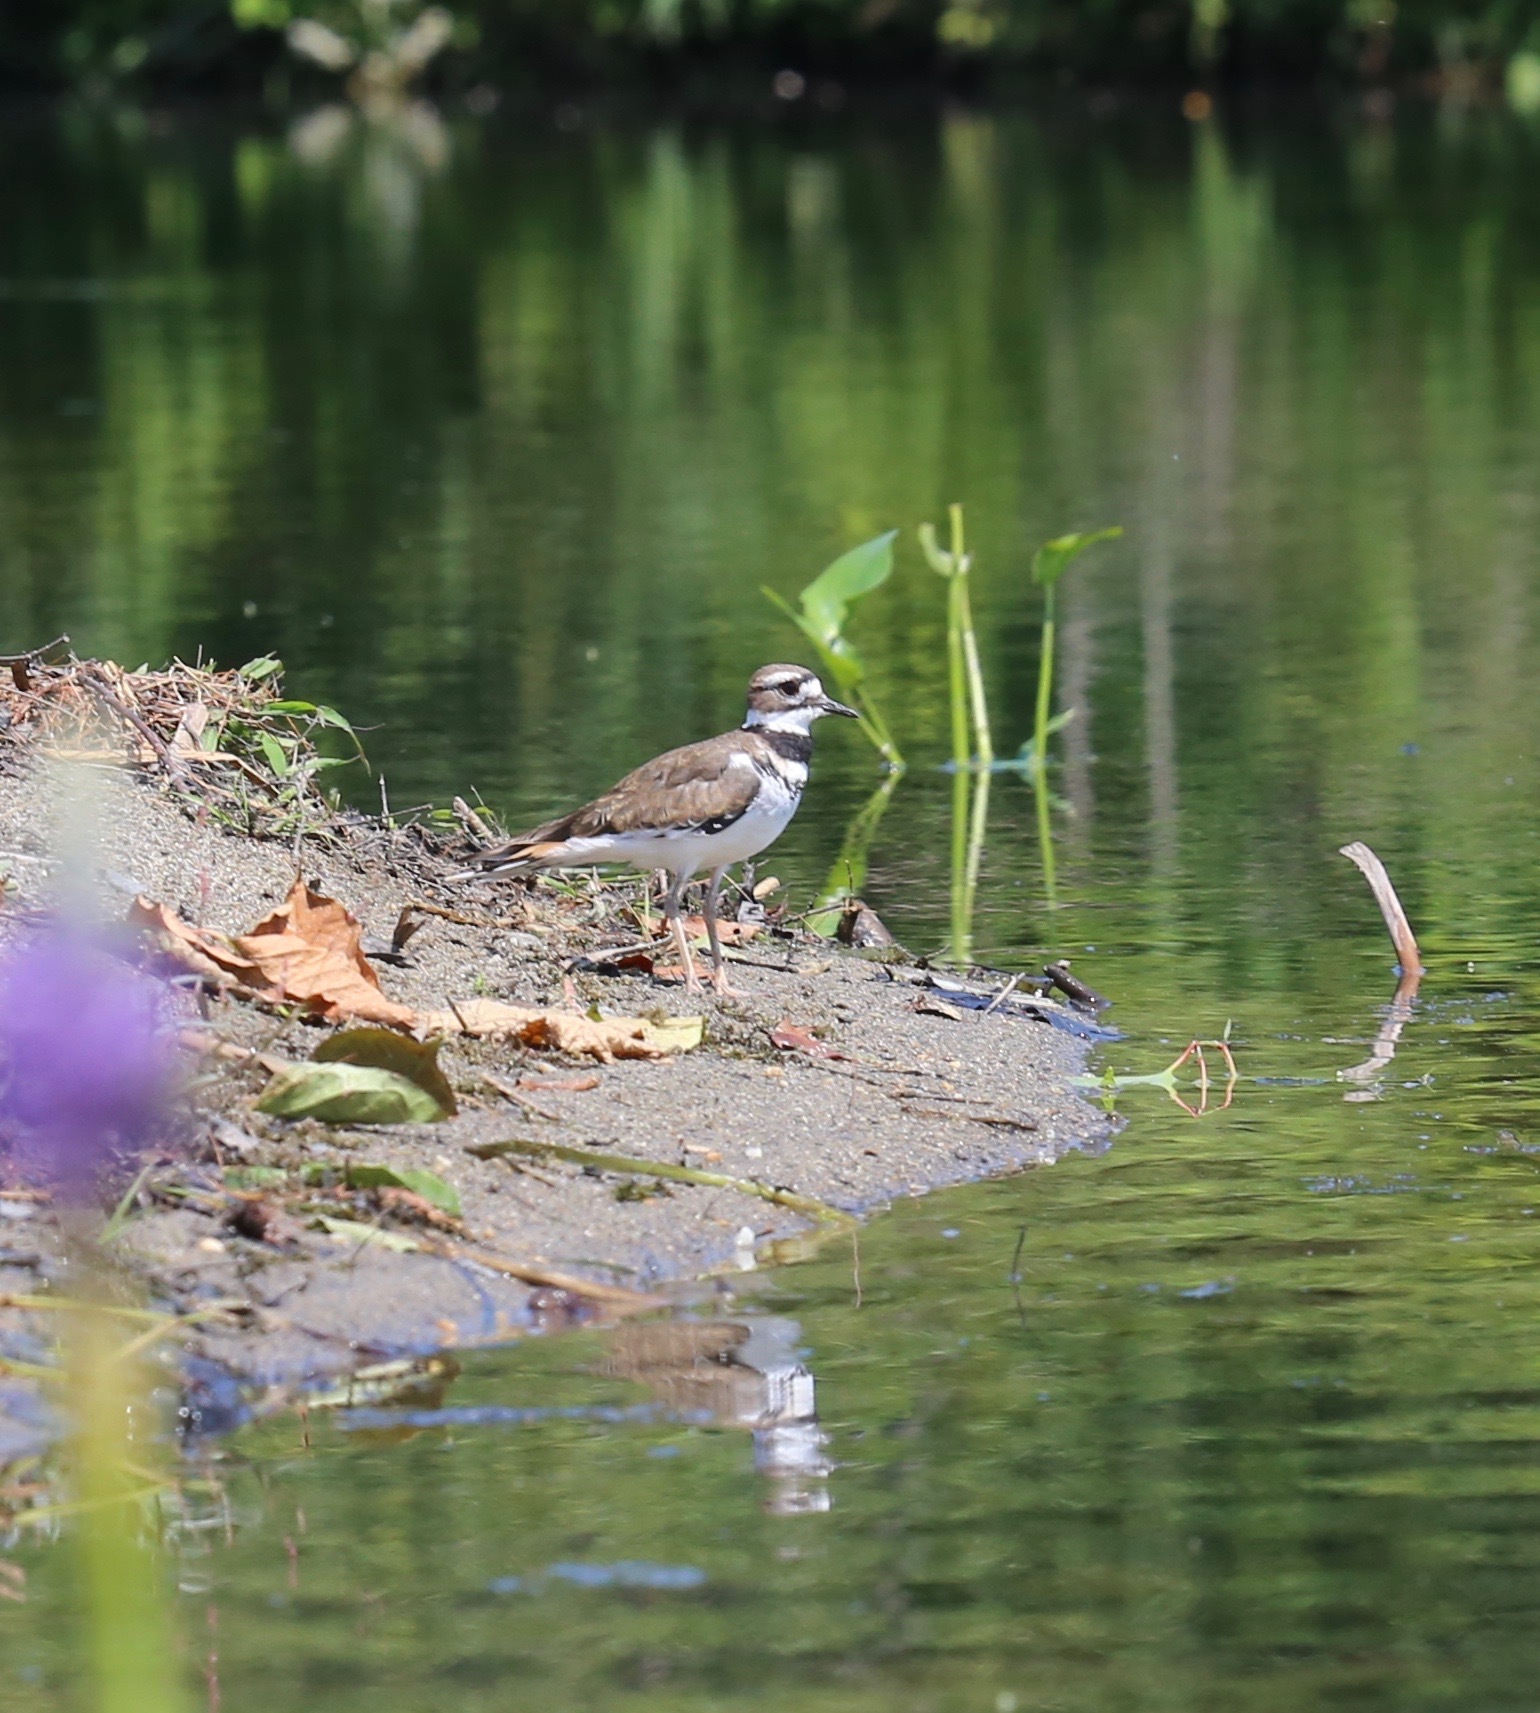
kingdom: Animalia
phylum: Chordata
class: Aves
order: Charadriiformes
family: Charadriidae
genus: Charadrius
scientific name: Charadrius vociferus
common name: Killdeer
